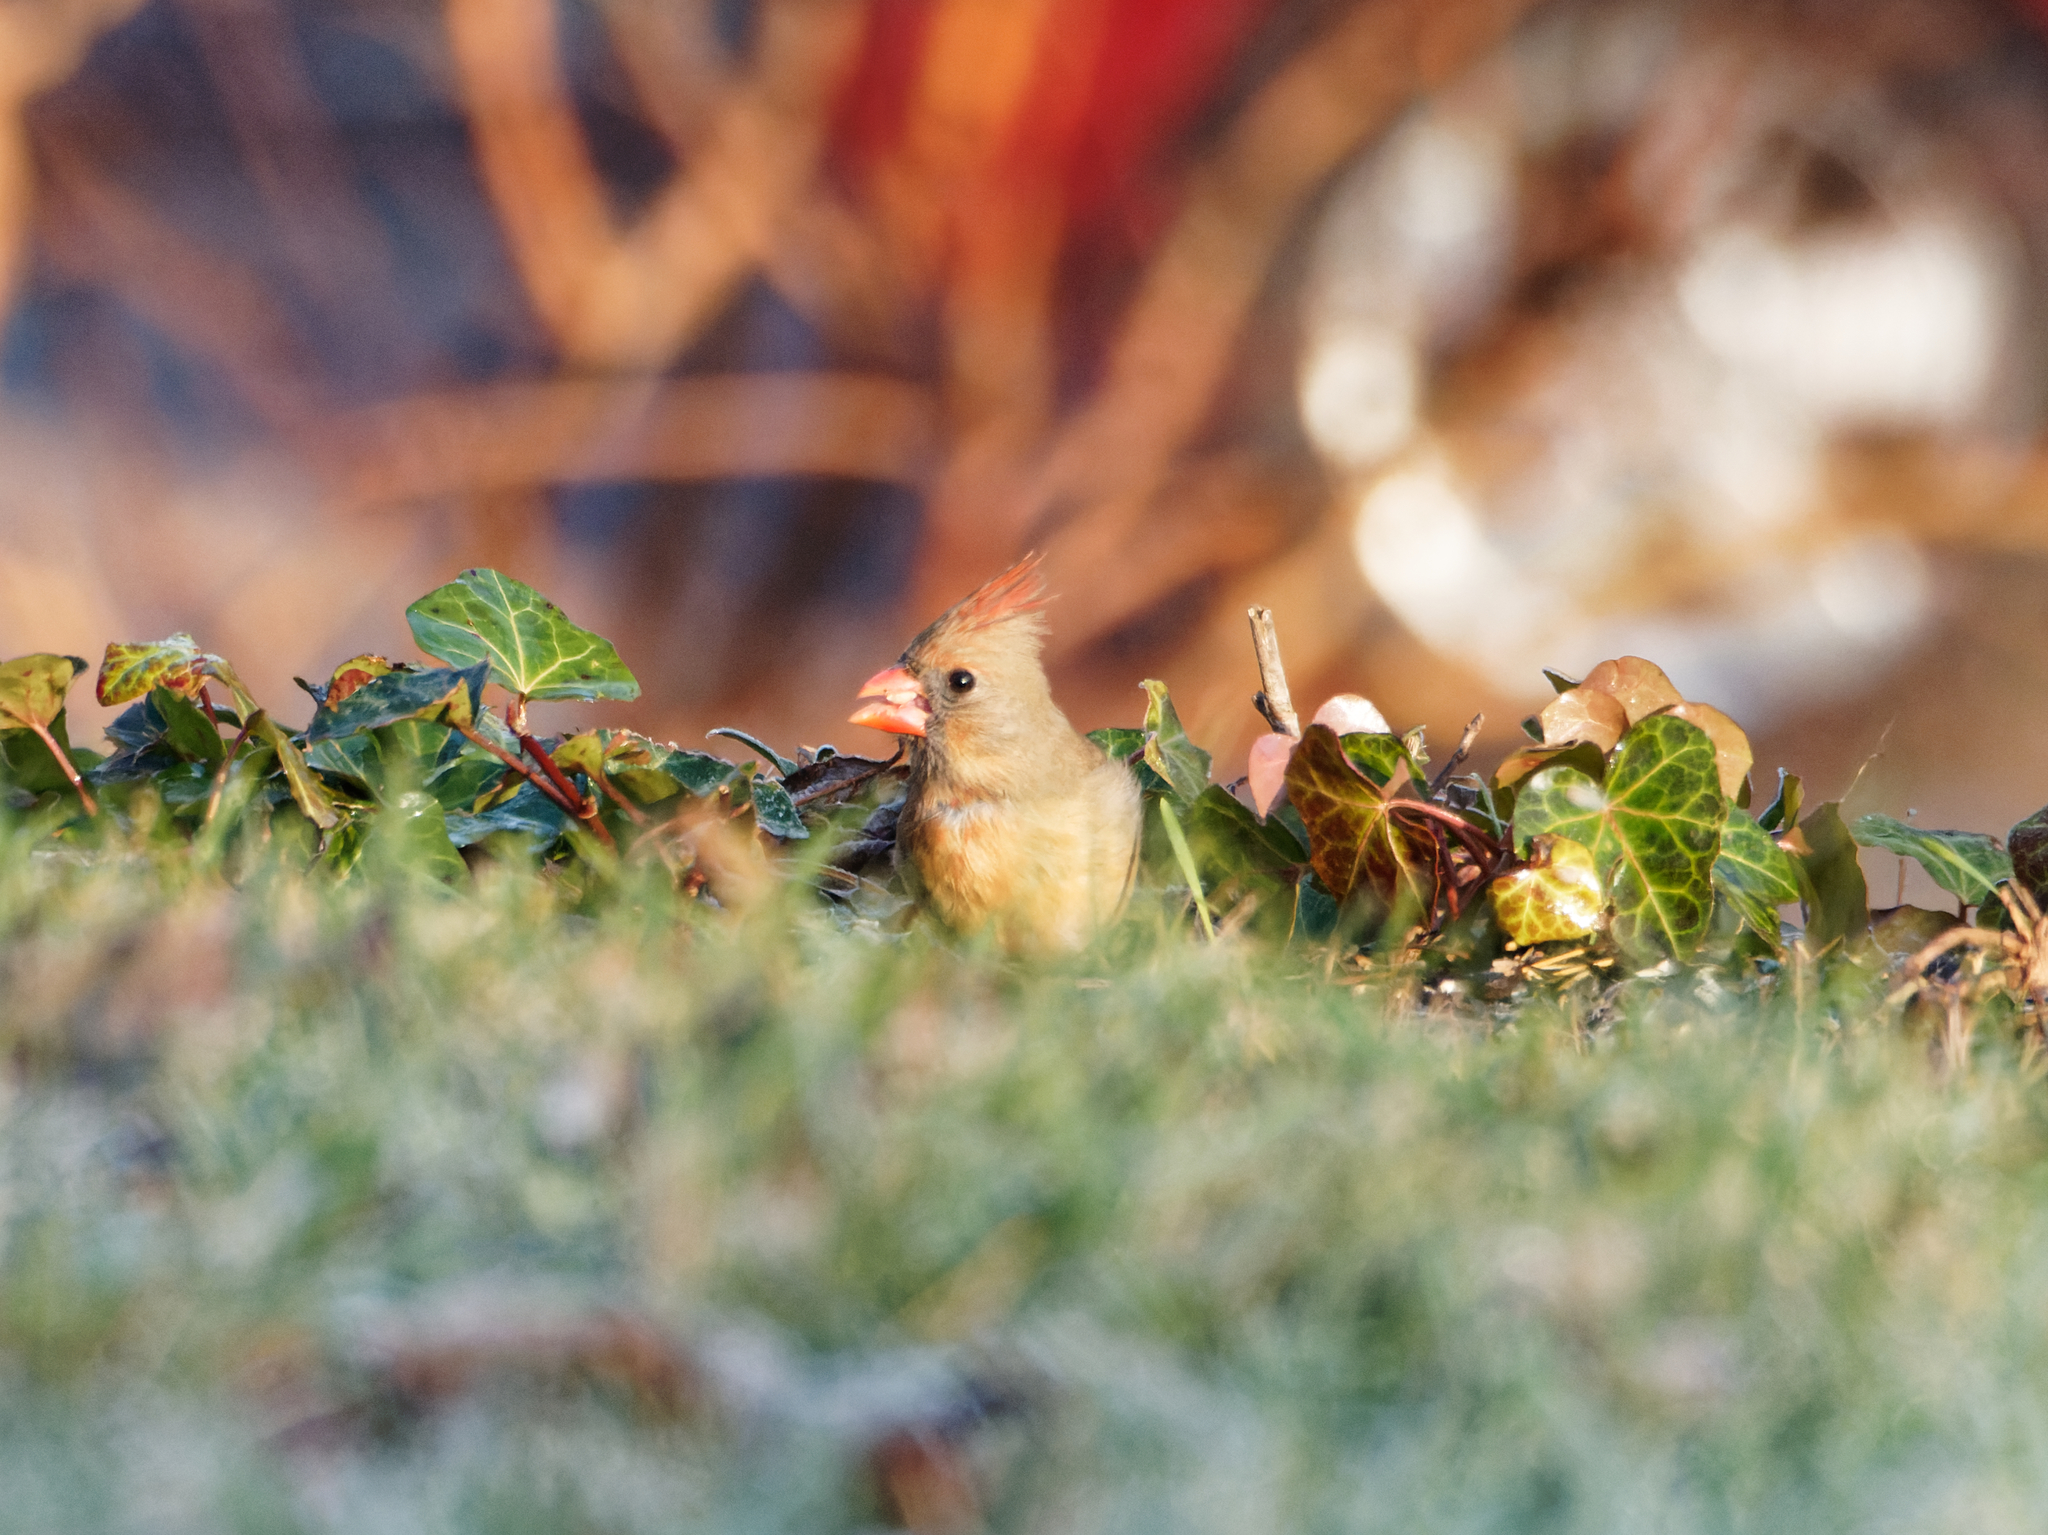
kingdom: Animalia
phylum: Chordata
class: Aves
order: Passeriformes
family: Cardinalidae
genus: Cardinalis
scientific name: Cardinalis cardinalis
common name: Northern cardinal
